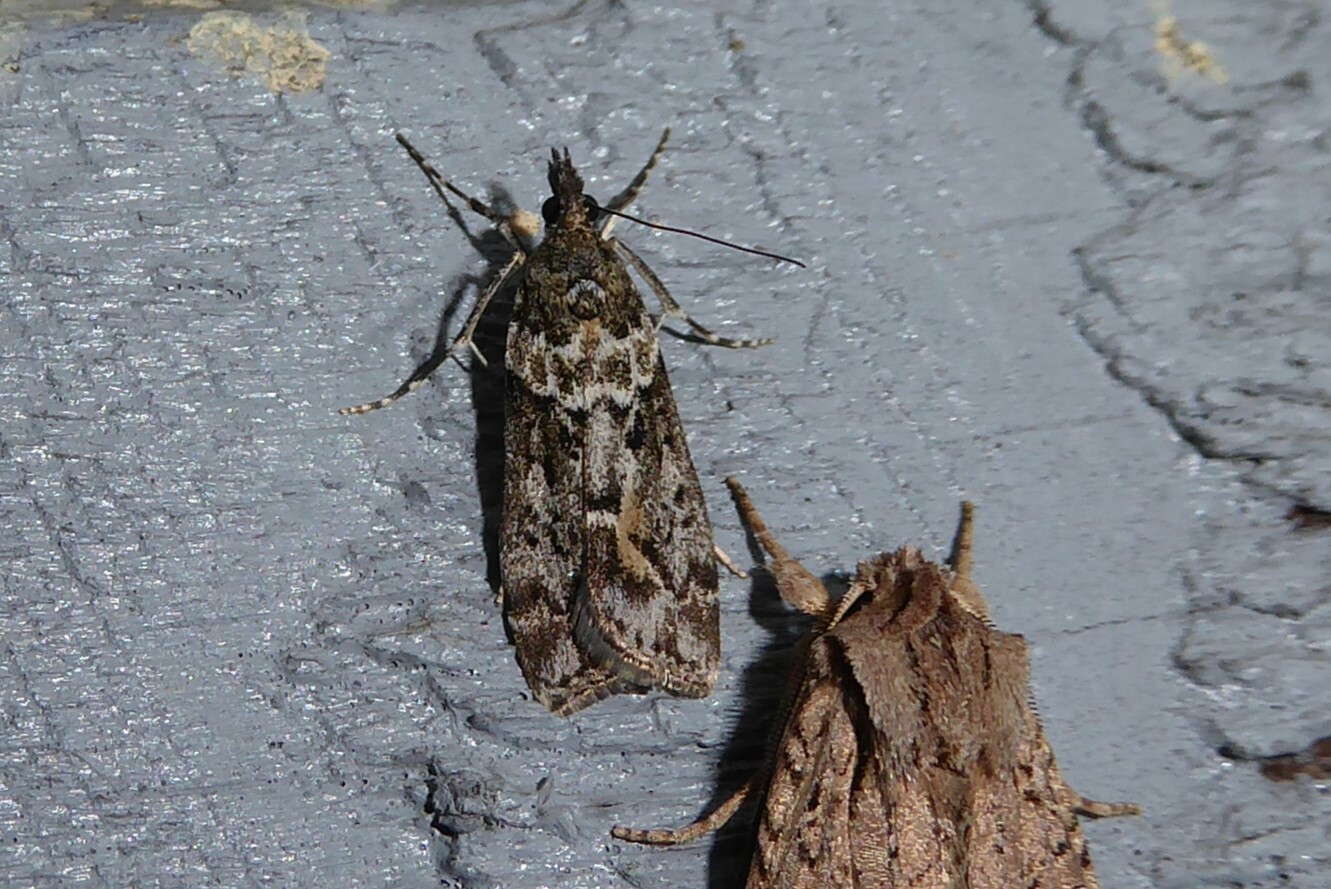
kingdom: Animalia
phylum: Arthropoda
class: Insecta
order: Lepidoptera
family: Crambidae
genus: Eudonia
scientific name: Eudonia submarginalis
